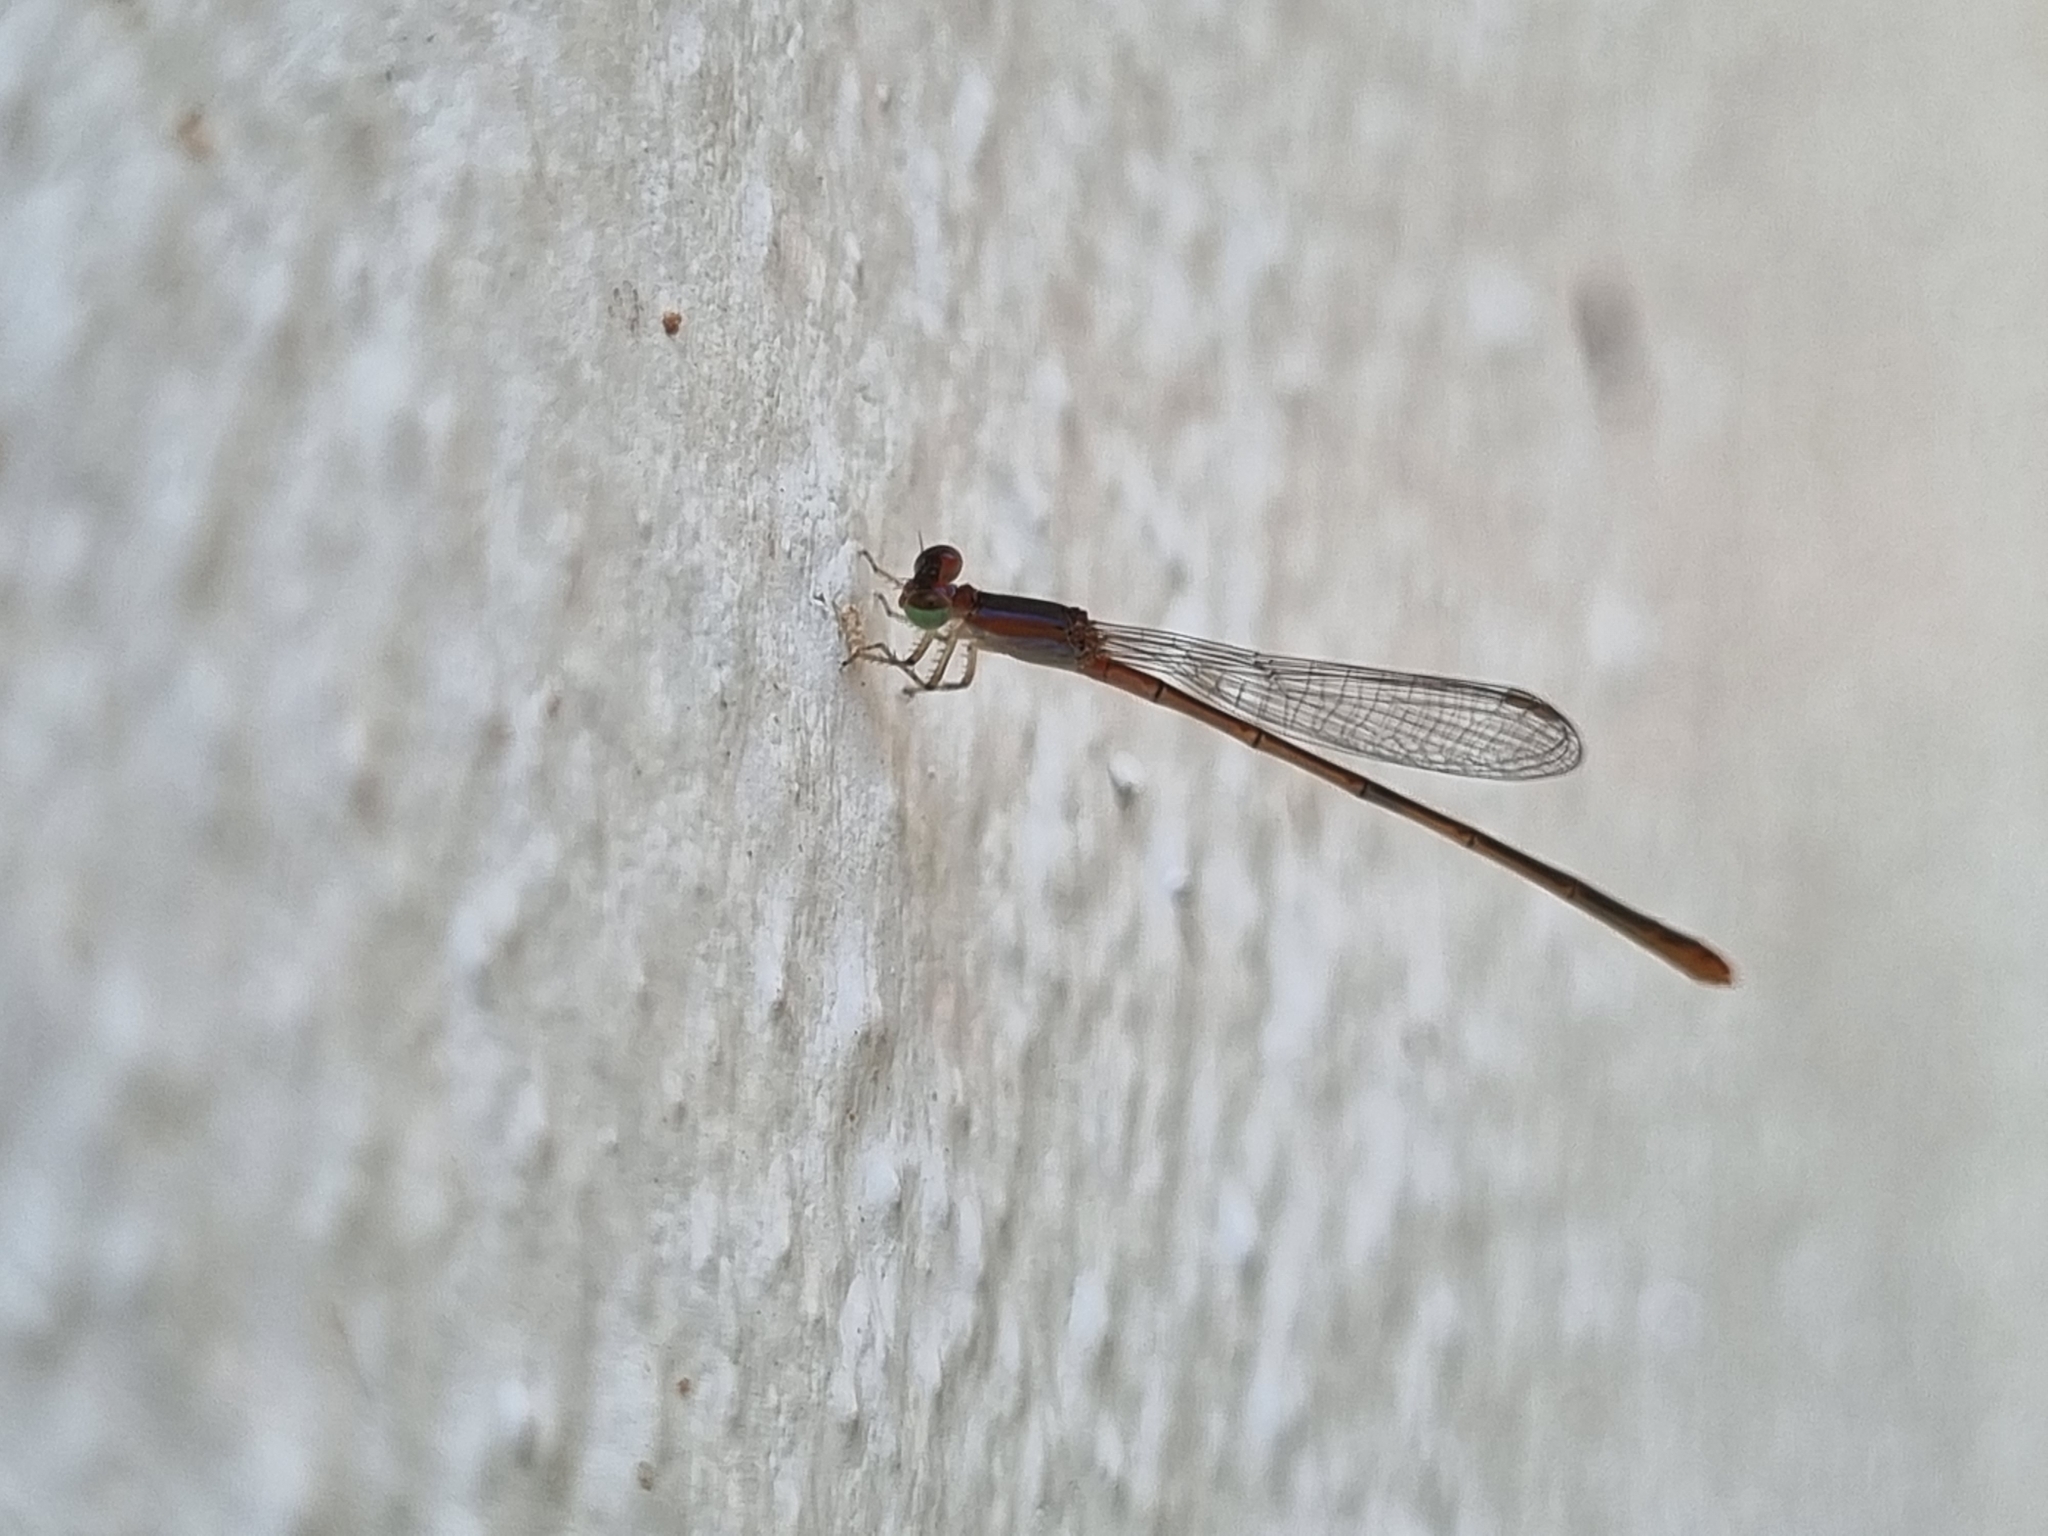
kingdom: Animalia
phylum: Arthropoda
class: Insecta
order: Odonata
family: Coenagrionidae
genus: Agriocnemis
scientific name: Agriocnemis pygmaea
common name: Pygmy wisp
